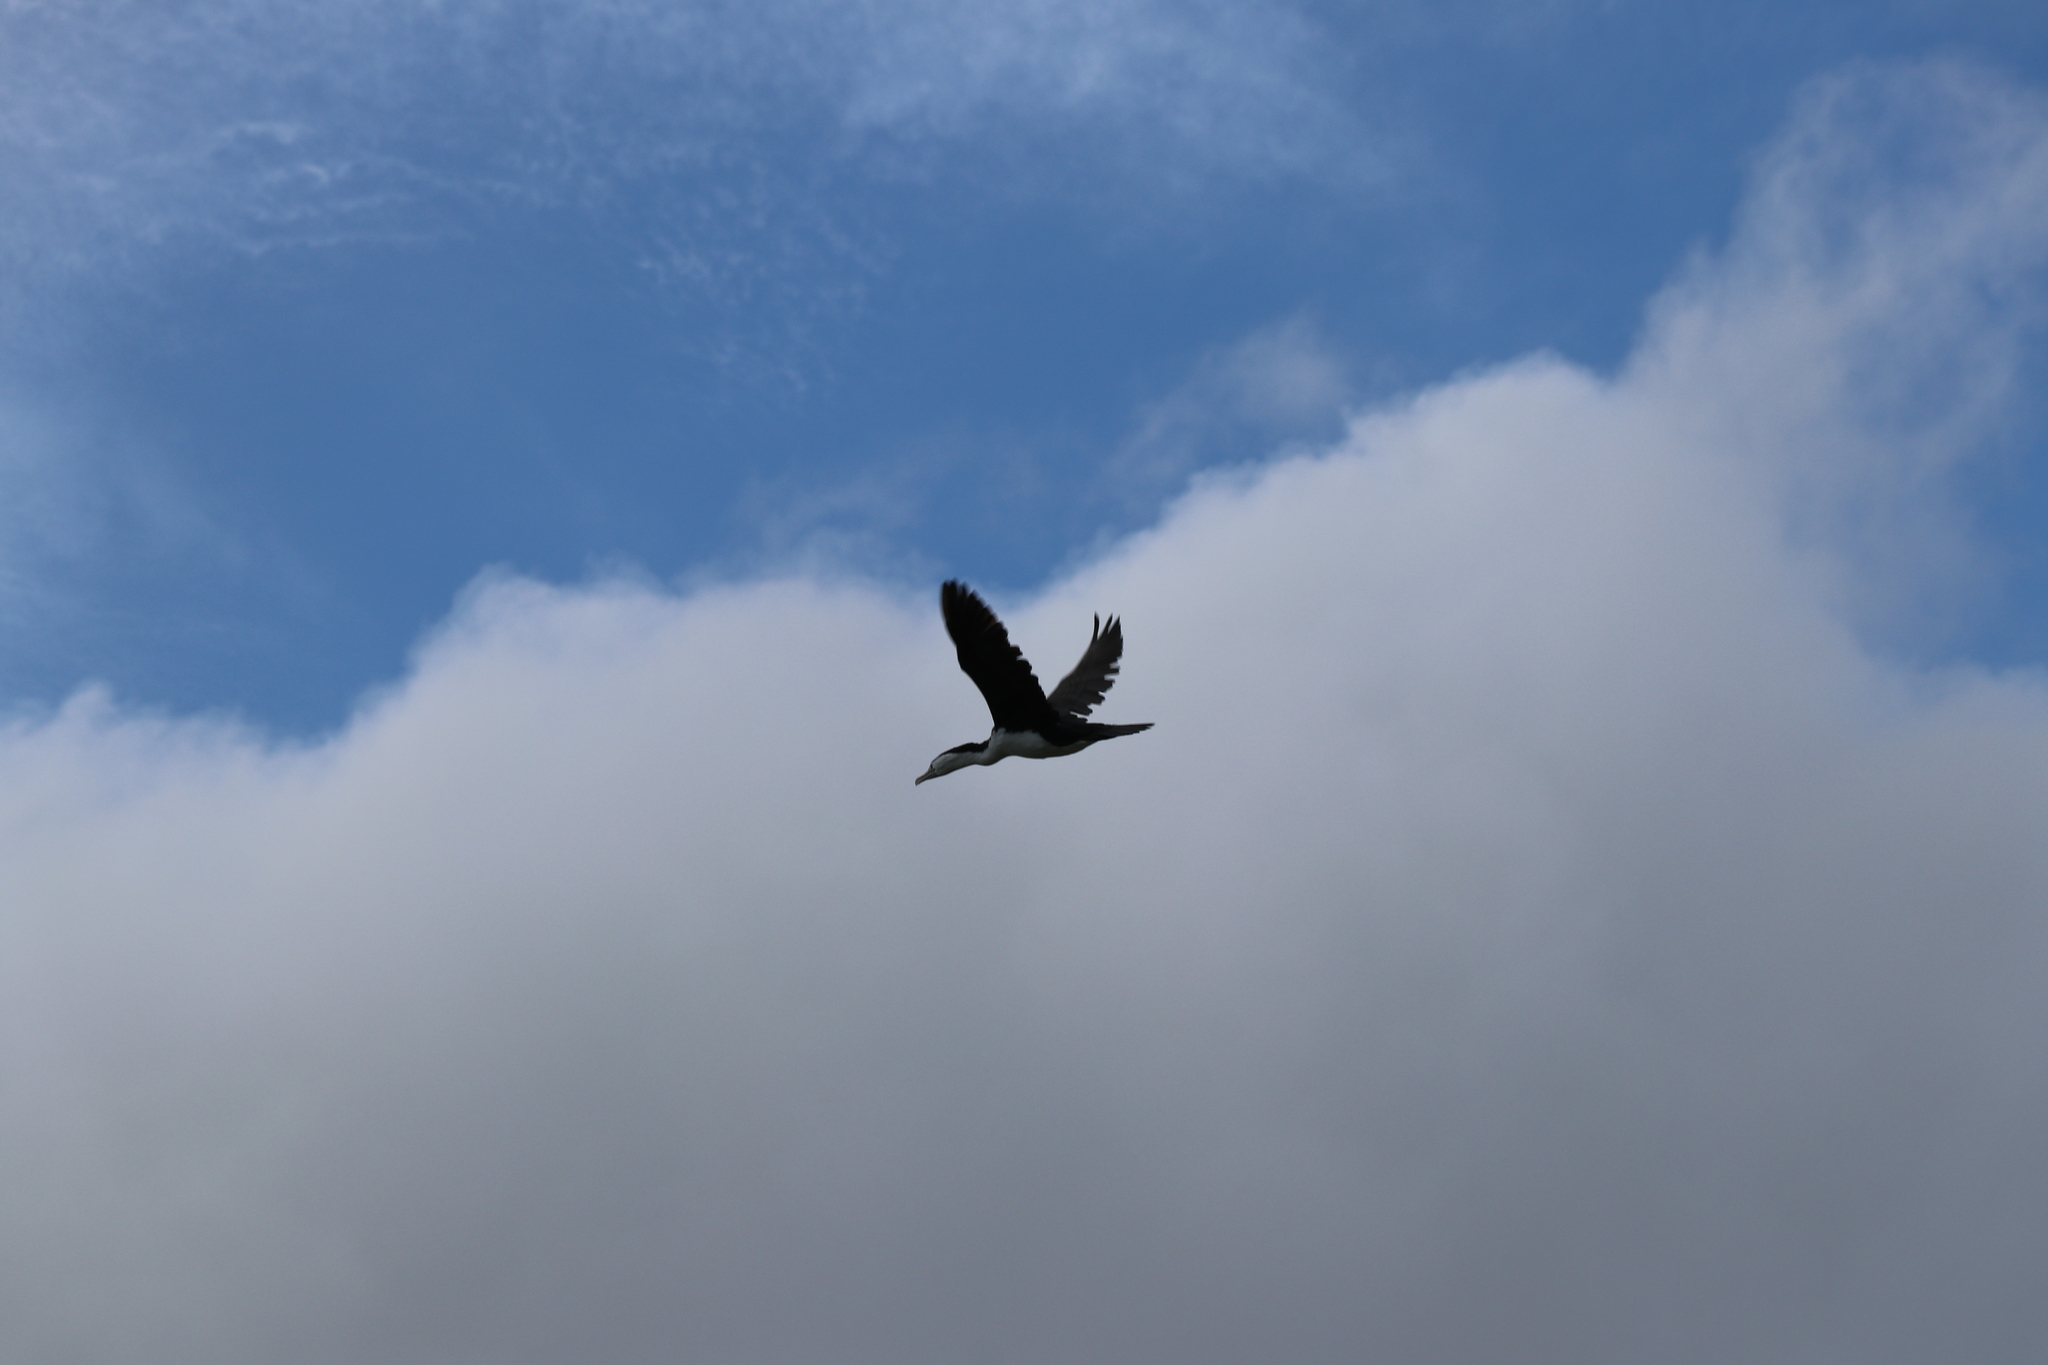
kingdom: Animalia
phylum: Chordata
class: Aves
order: Suliformes
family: Phalacrocoracidae
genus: Phalacrocorax
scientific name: Phalacrocorax varius
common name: Pied cormorant
